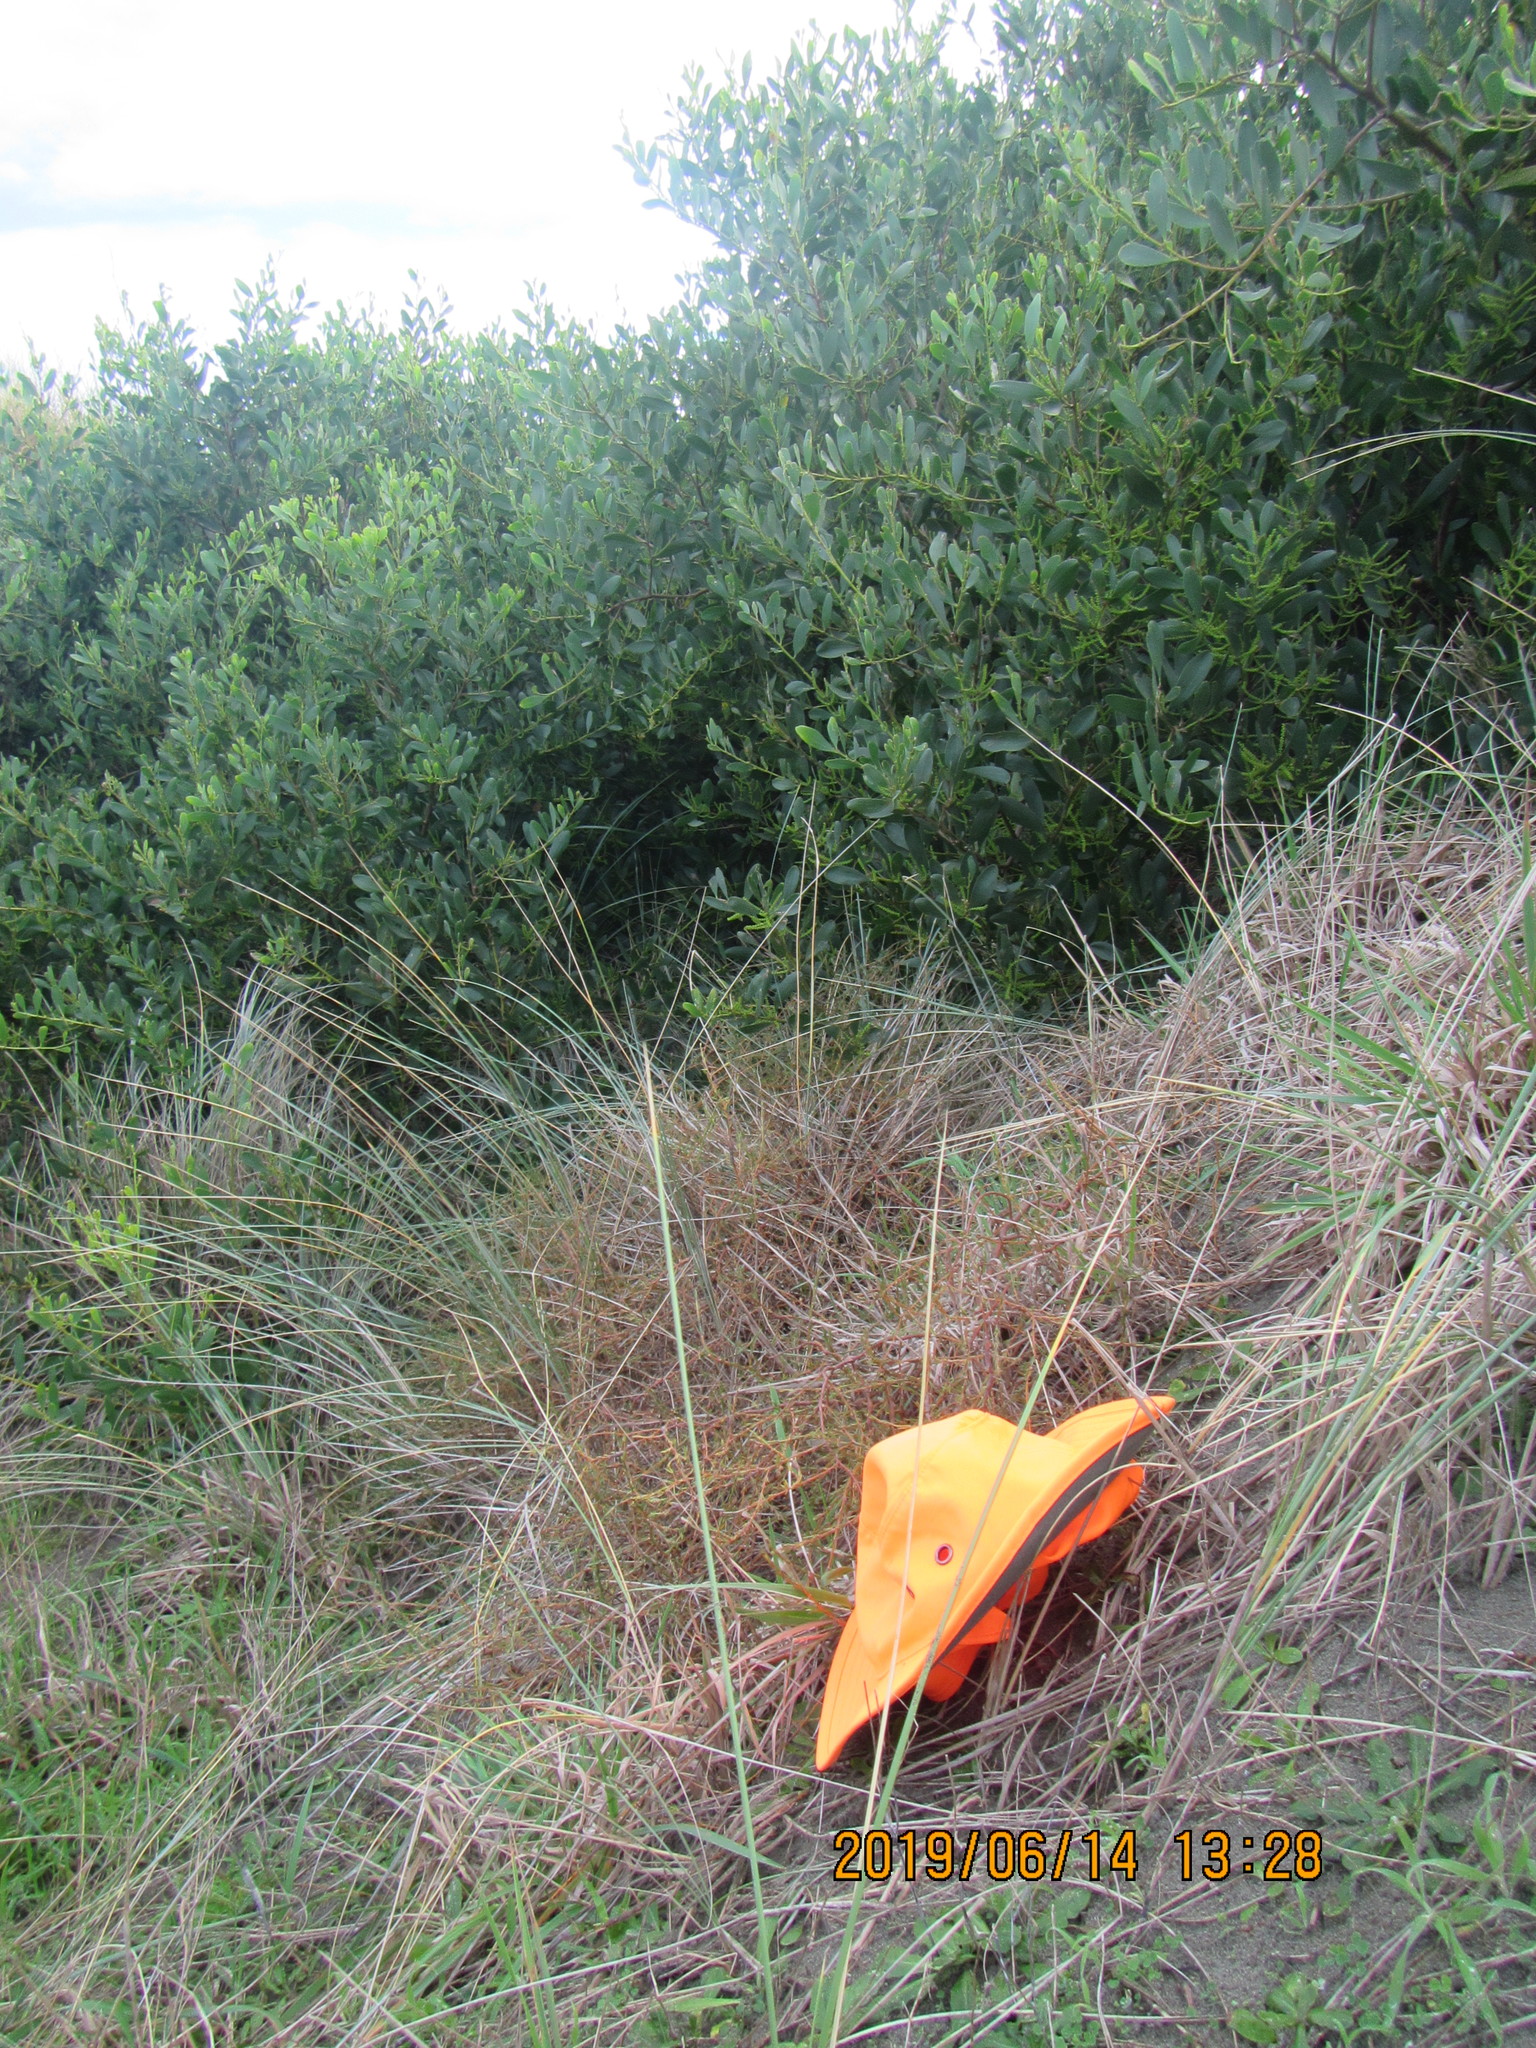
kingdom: Plantae
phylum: Tracheophyta
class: Magnoliopsida
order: Gentianales
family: Rubiaceae
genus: Coprosma
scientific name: Coprosma acerosa
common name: Sand coprosma
